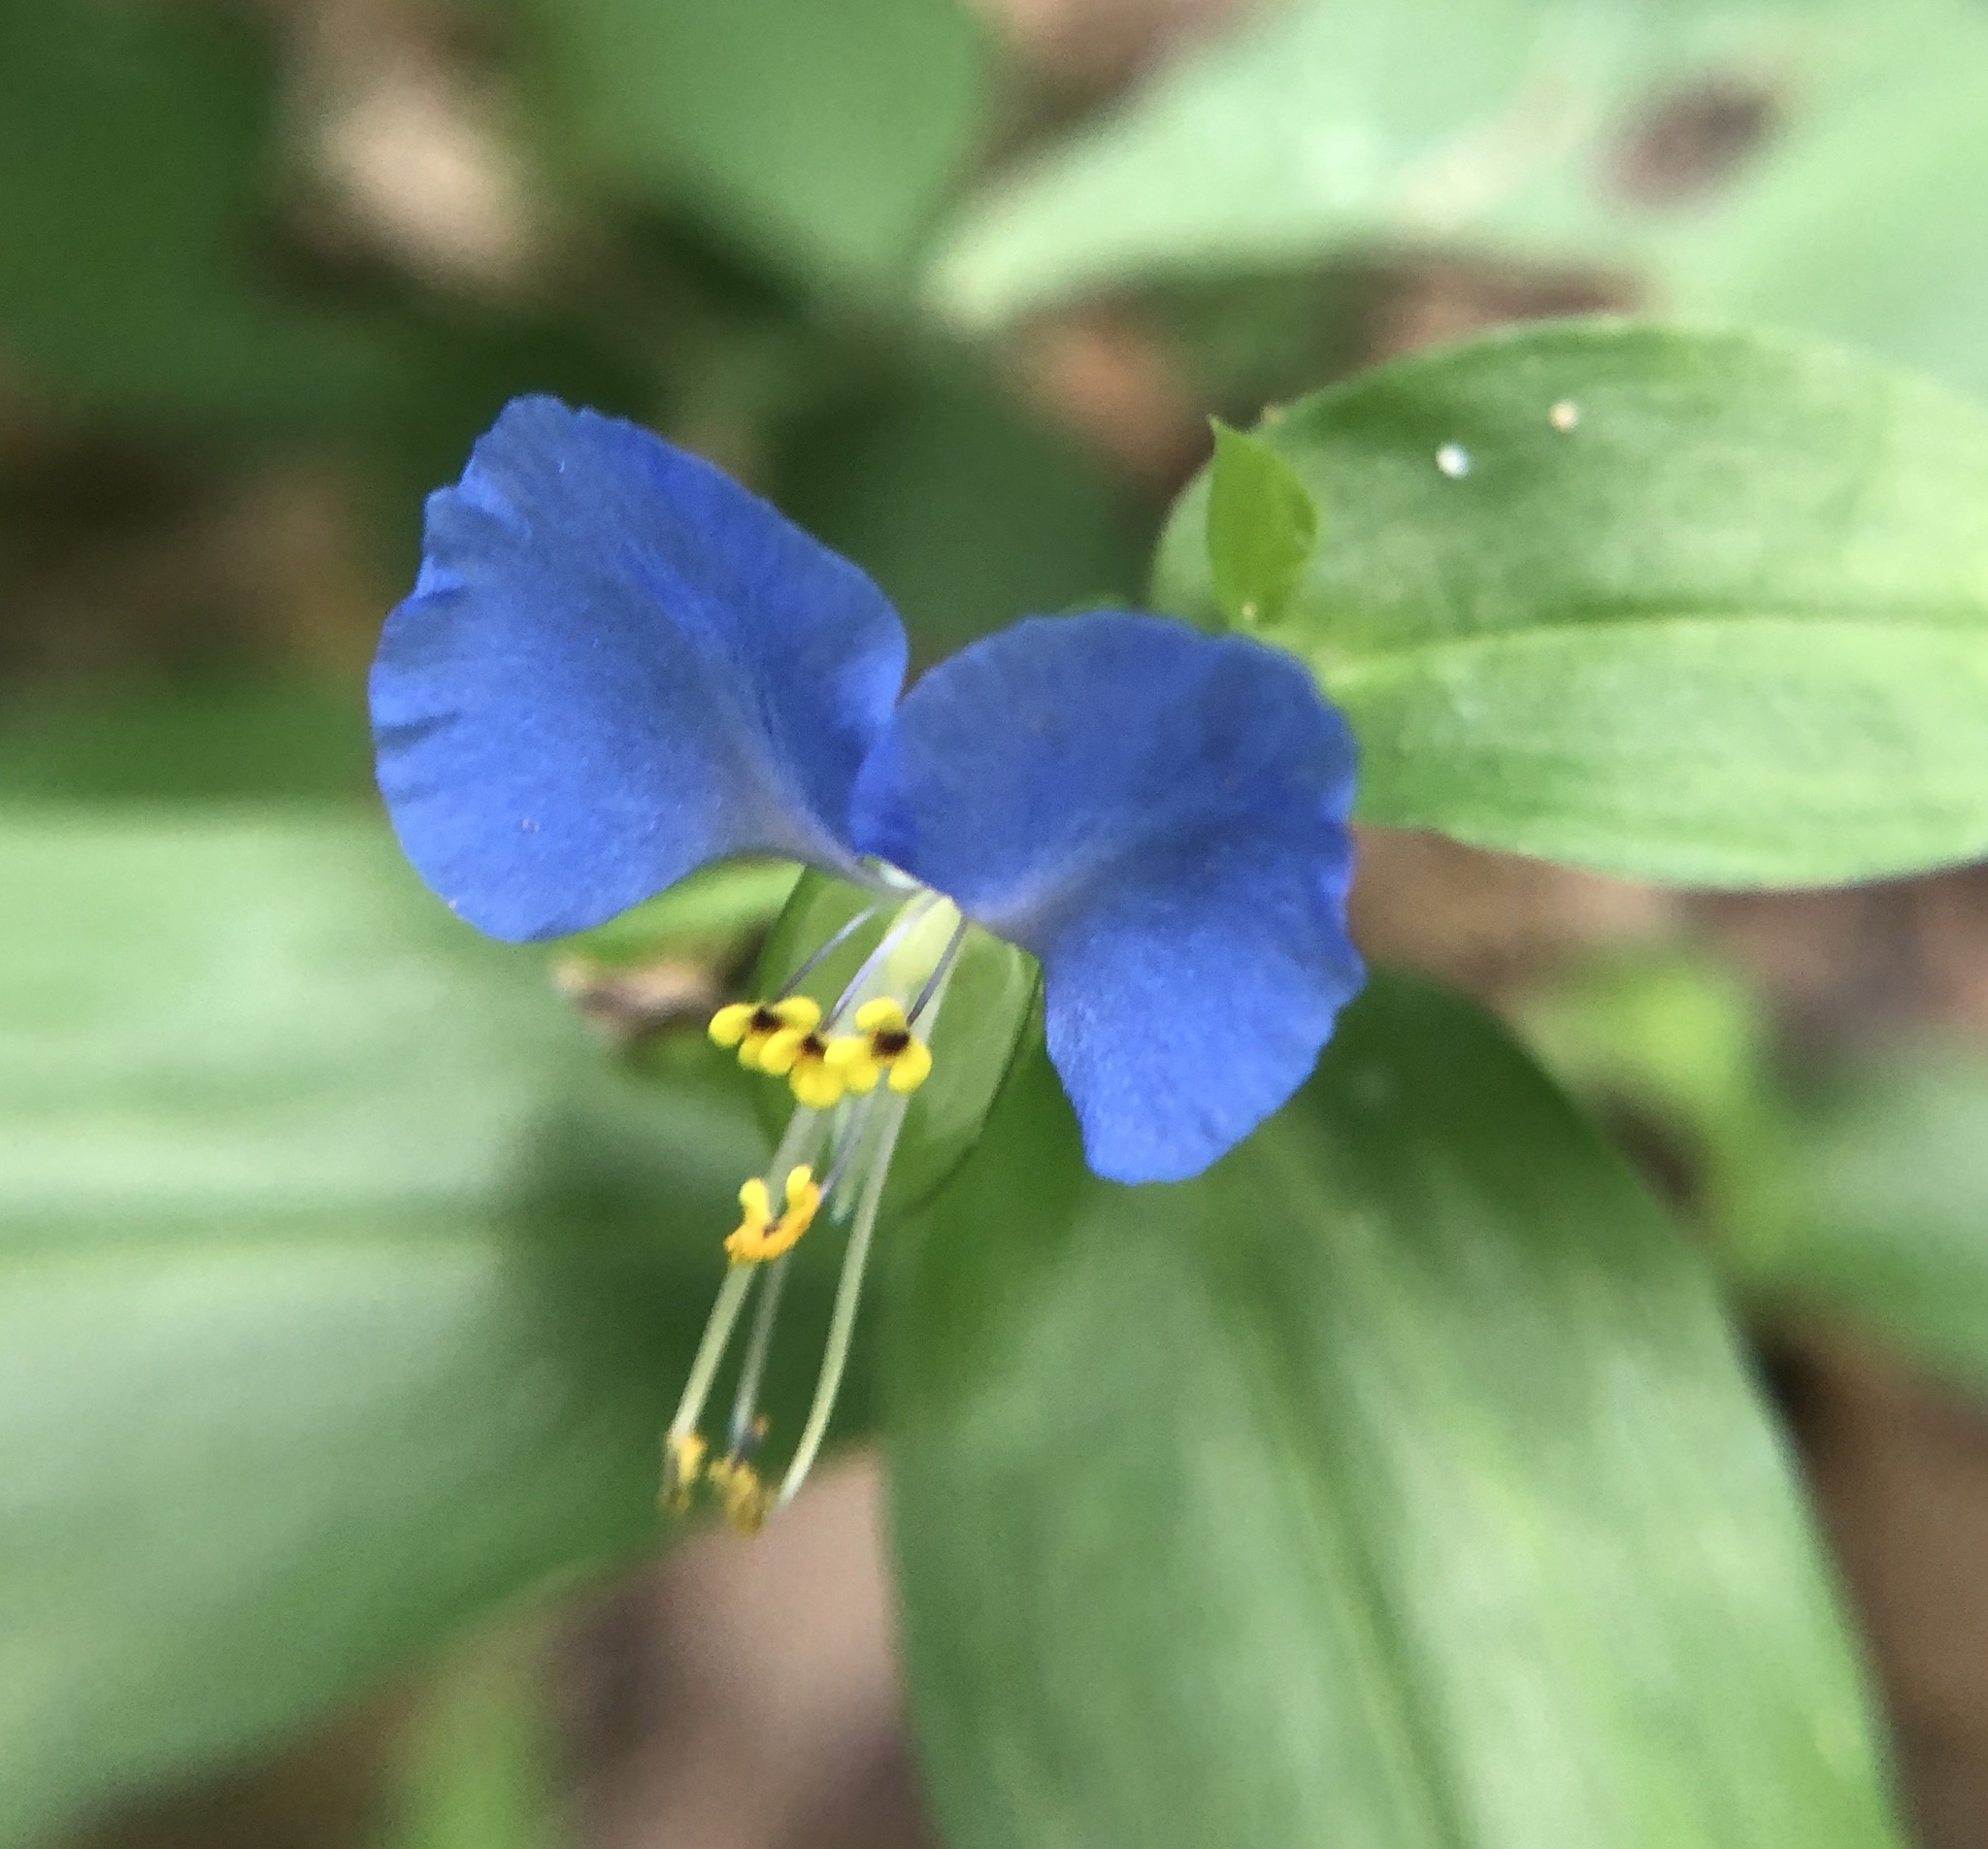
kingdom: Plantae
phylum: Tracheophyta
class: Liliopsida
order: Commelinales
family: Commelinaceae
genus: Commelina
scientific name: Commelina communis
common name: Asiatic dayflower
